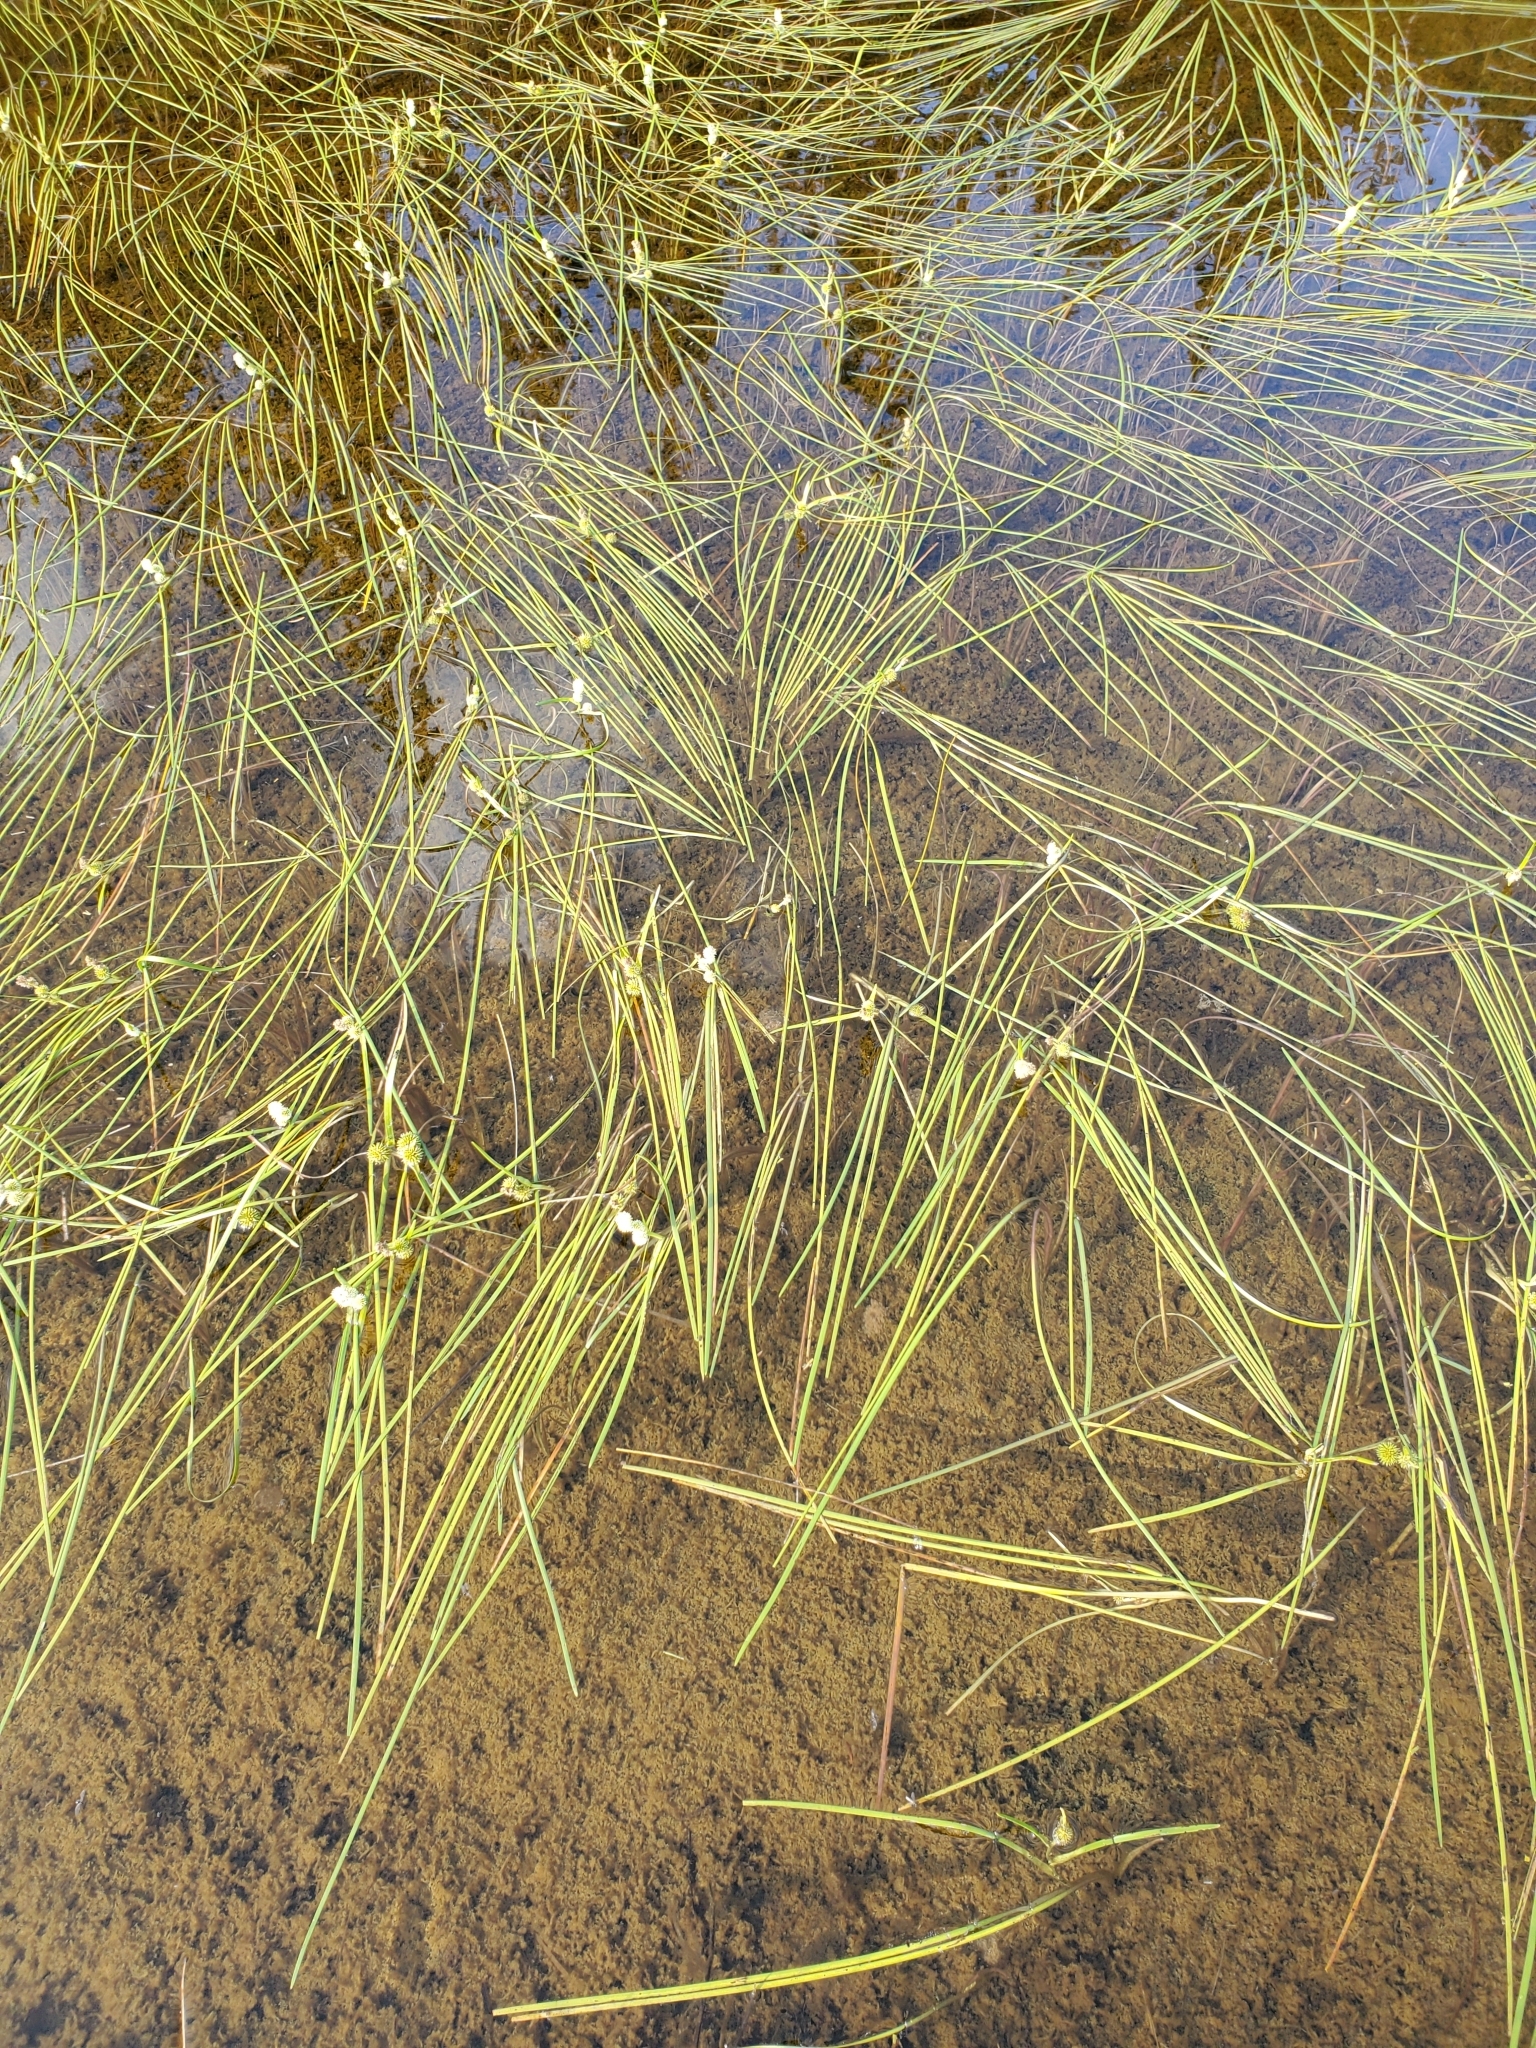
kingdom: Plantae
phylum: Tracheophyta
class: Liliopsida
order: Poales
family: Typhaceae
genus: Sparganium
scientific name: Sparganium angustifolium
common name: Floating bur-reed
